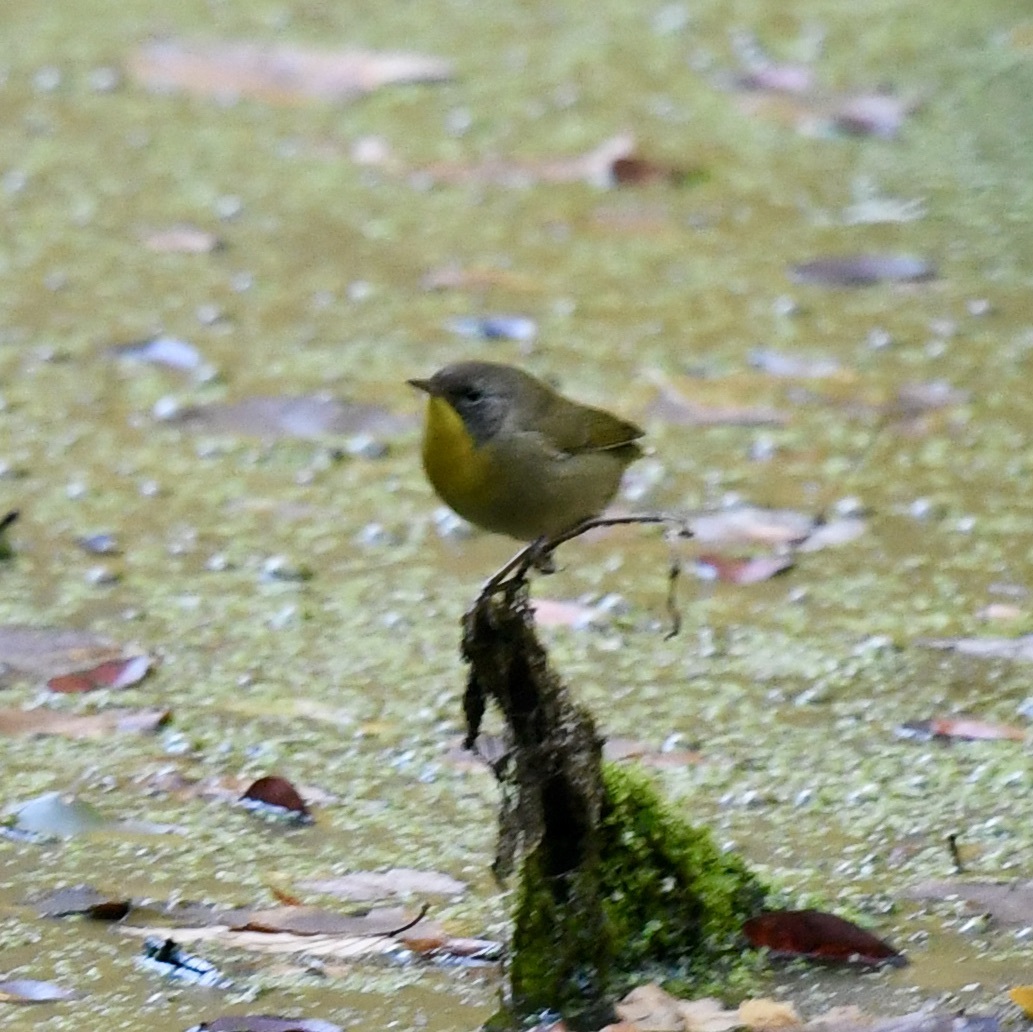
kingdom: Animalia
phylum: Chordata
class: Aves
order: Passeriformes
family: Parulidae
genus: Geothlypis
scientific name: Geothlypis trichas
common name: Common yellowthroat
